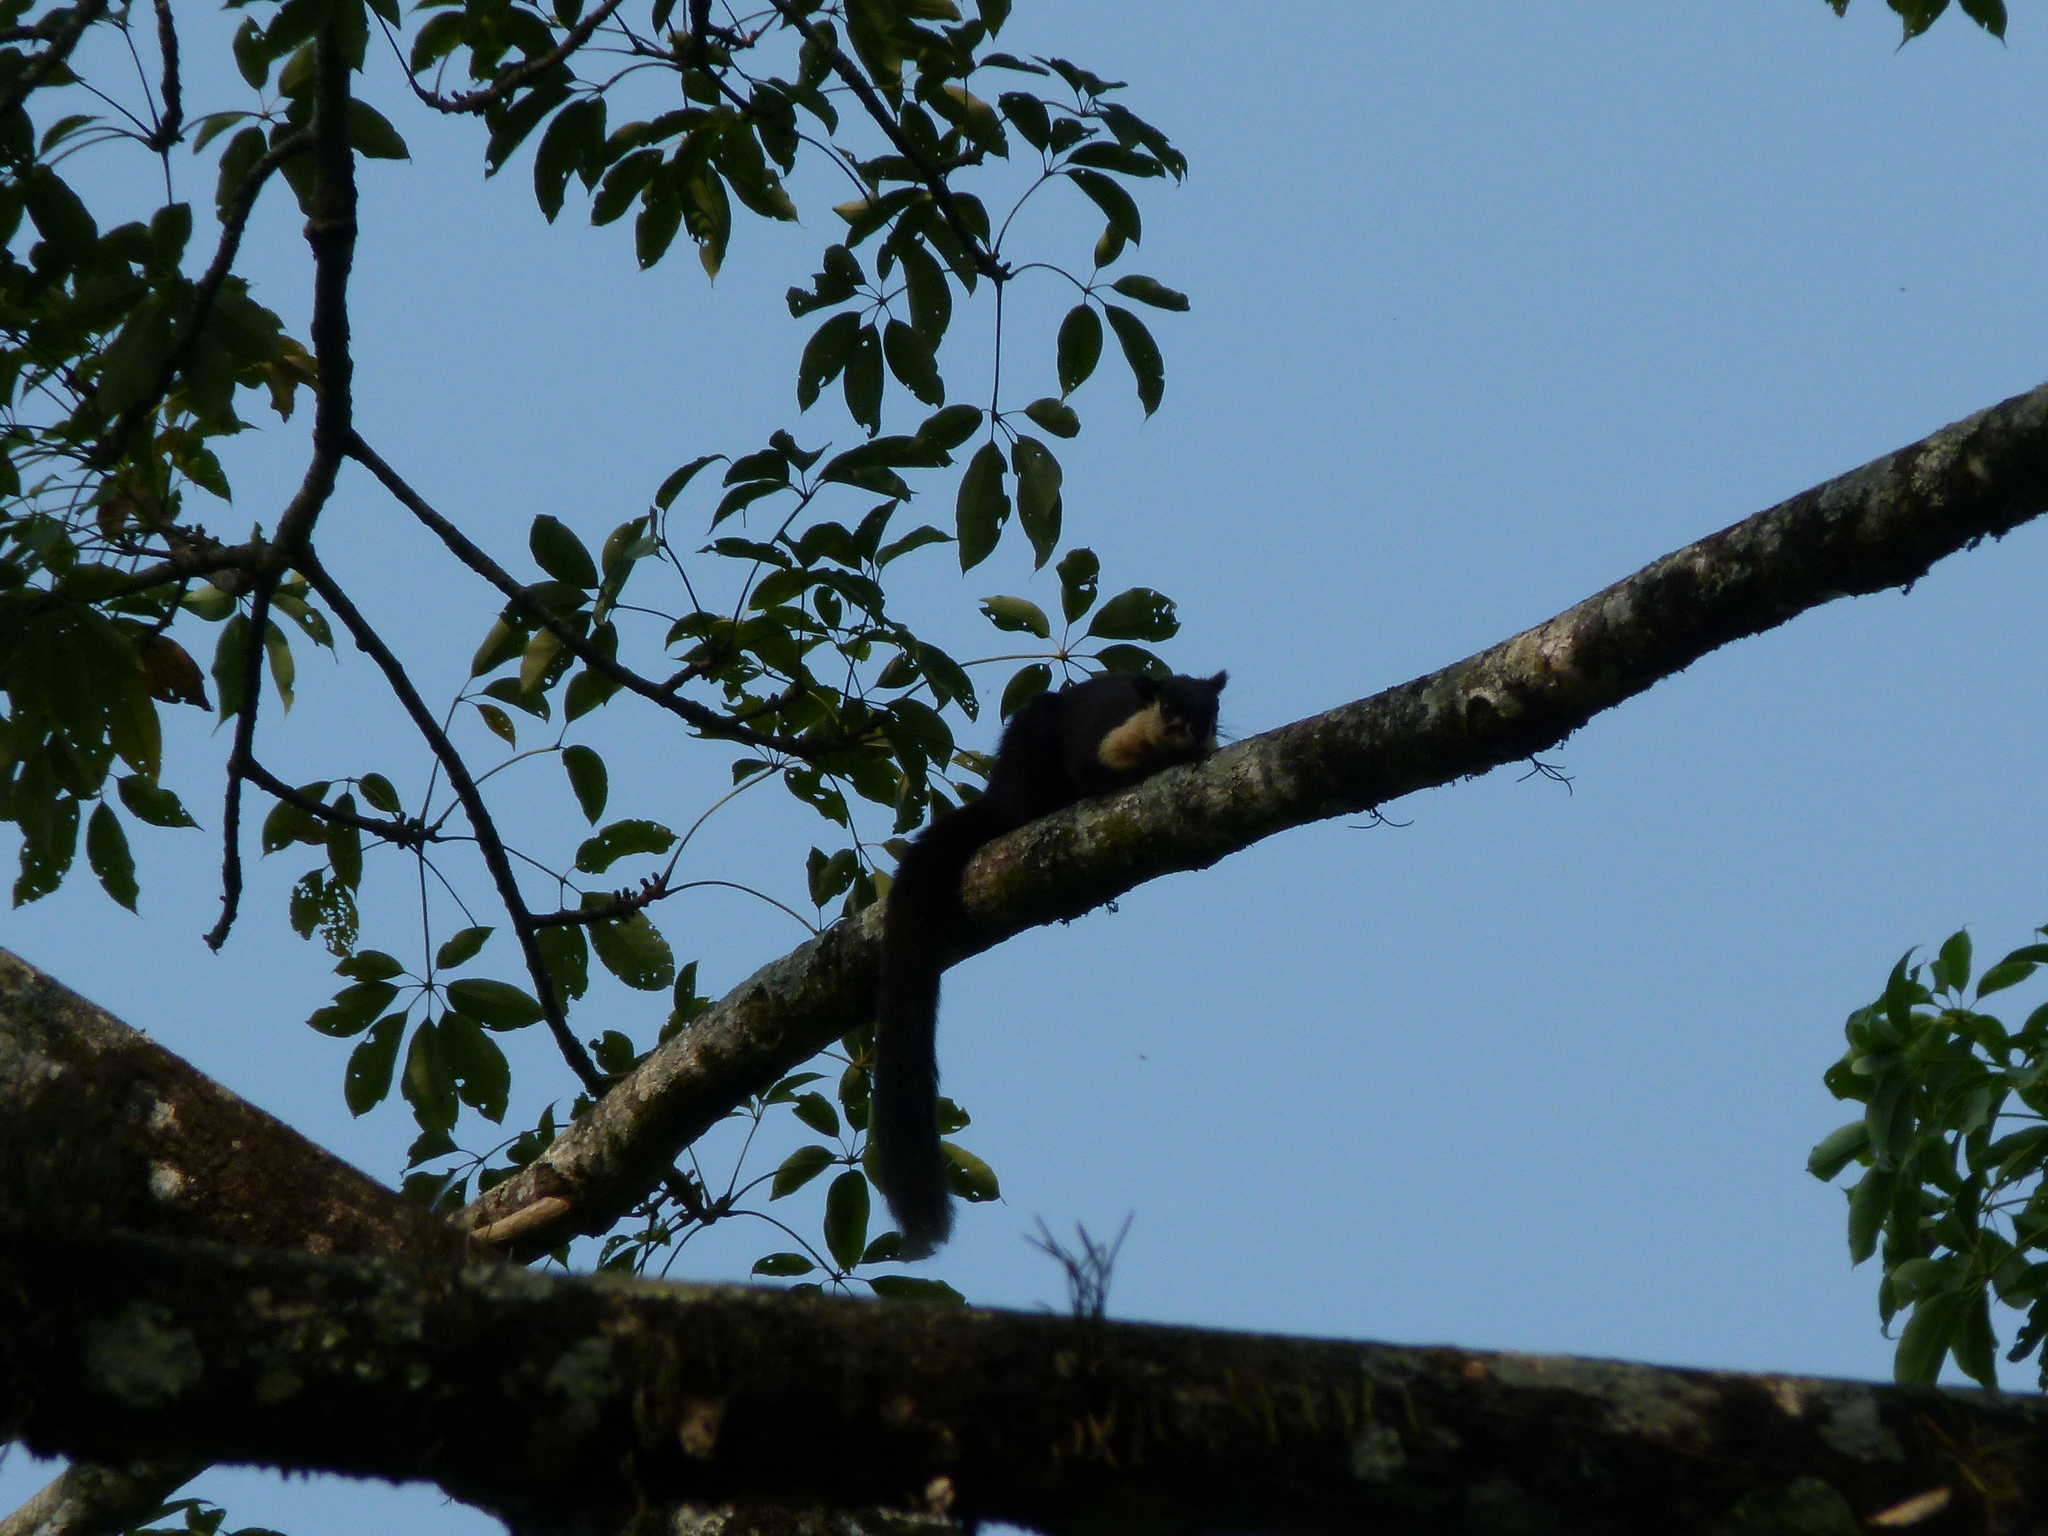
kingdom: Animalia
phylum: Chordata
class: Mammalia
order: Rodentia
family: Sciuridae
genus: Ratufa
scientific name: Ratufa bicolor
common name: Black giant squirrel
